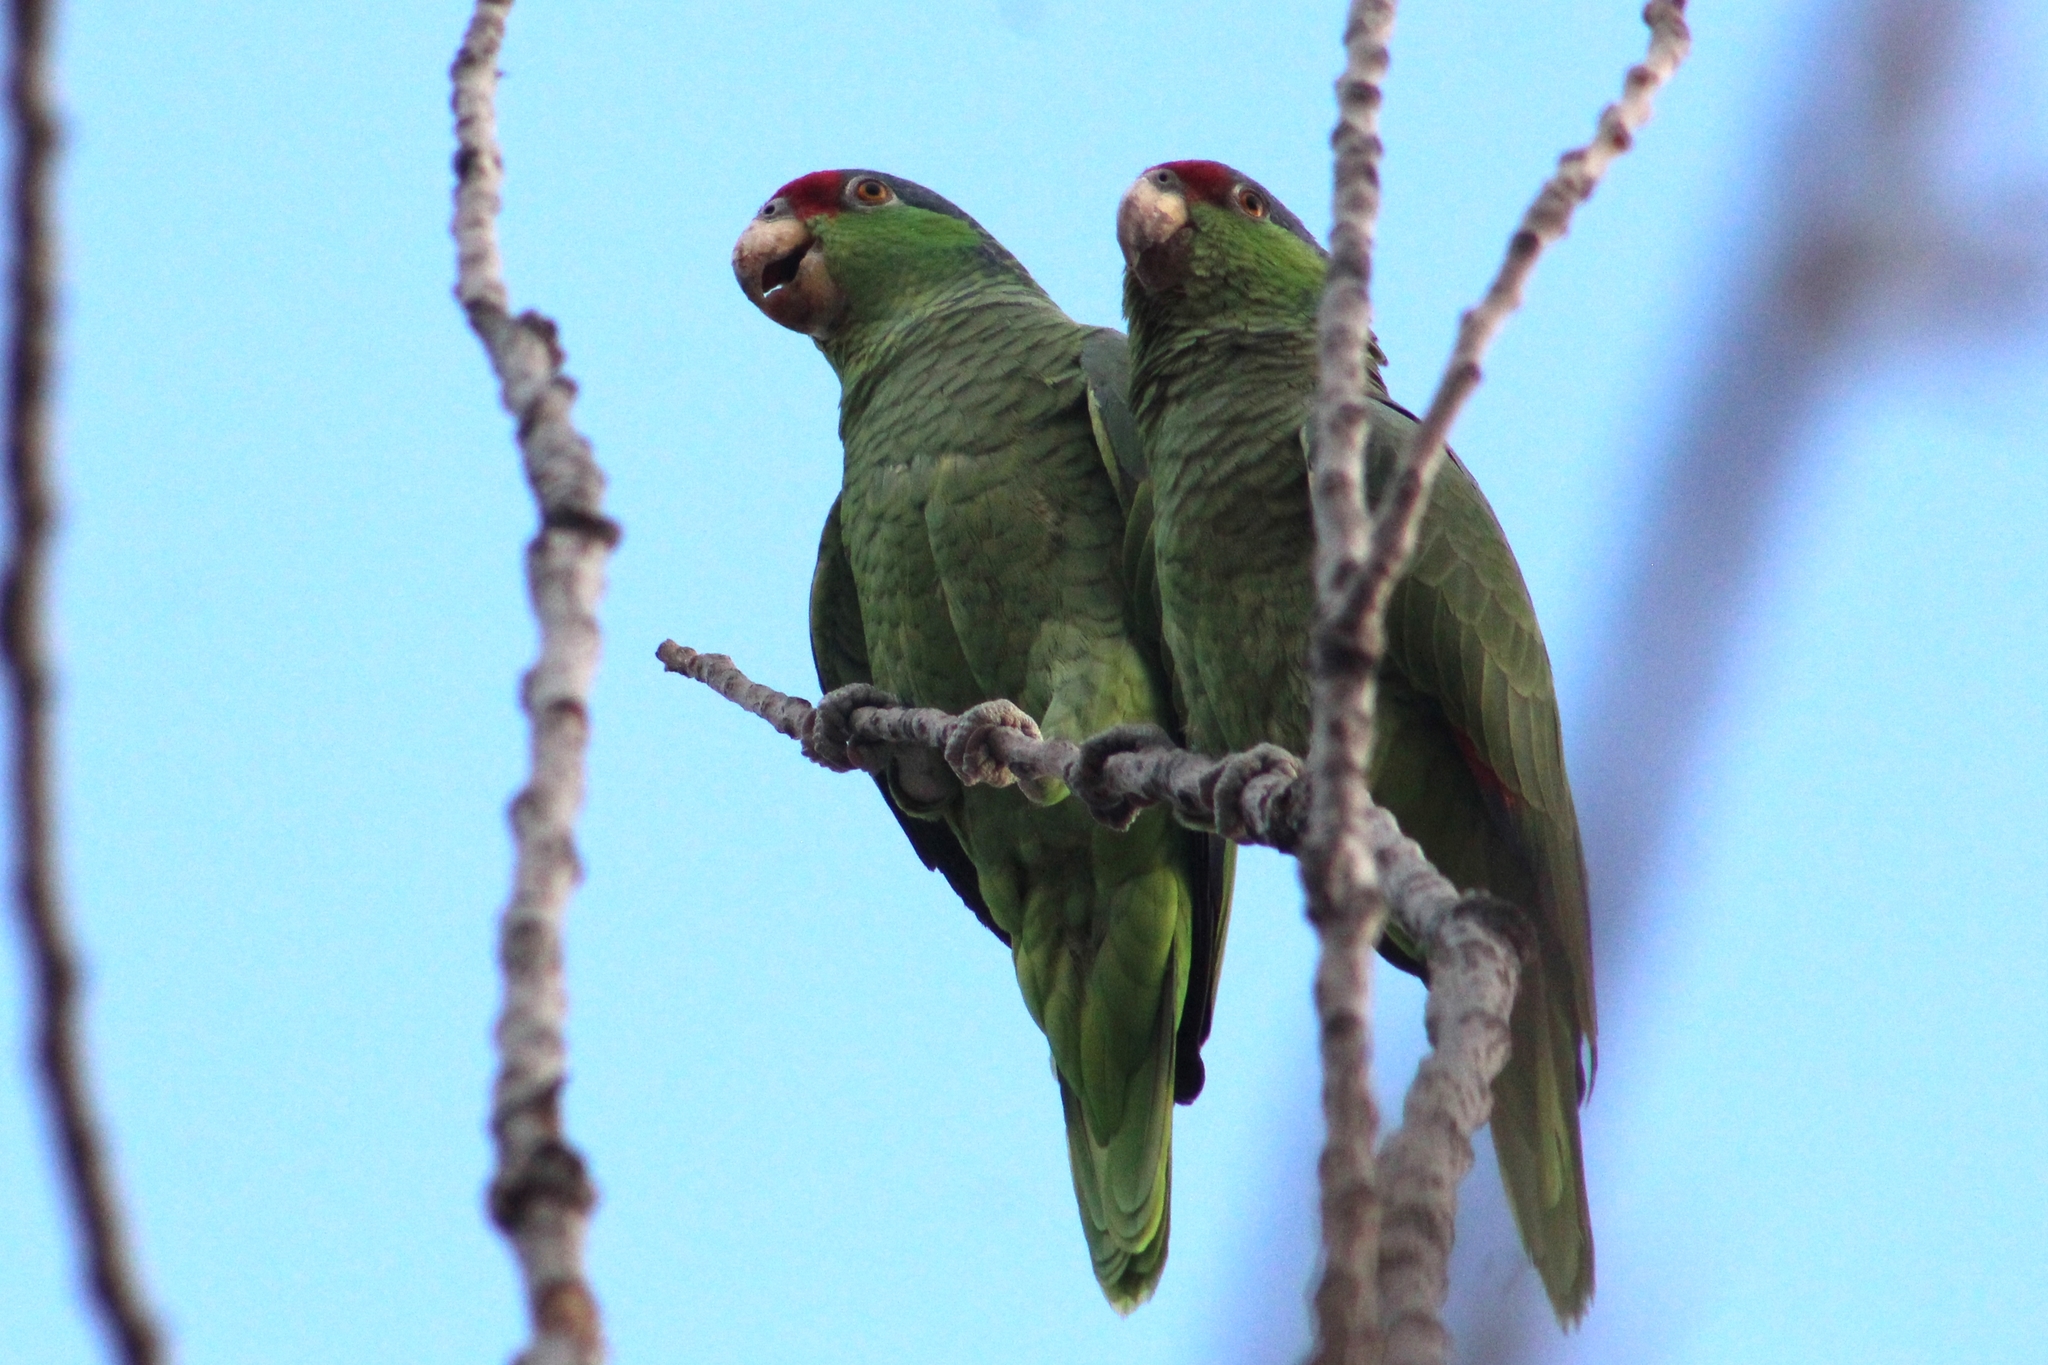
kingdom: Animalia
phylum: Chordata
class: Aves
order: Psittaciformes
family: Psittacidae
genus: Amazona
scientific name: Amazona viridigenalis
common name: Red-crowned amazon
